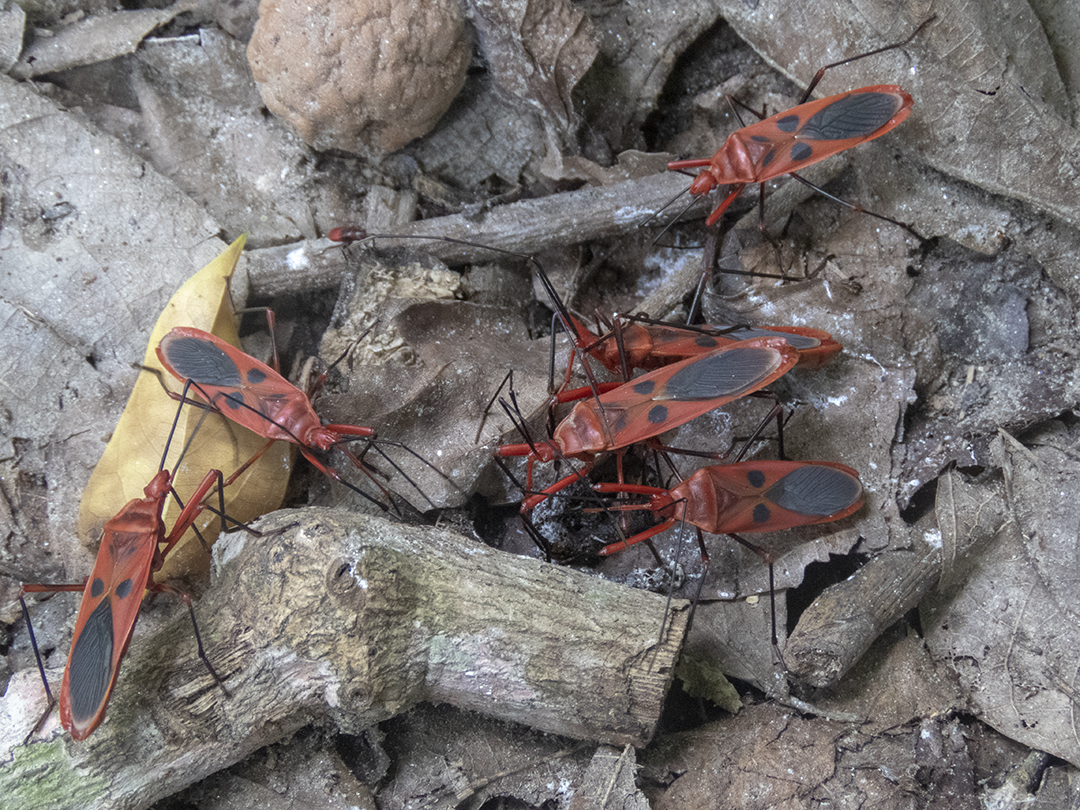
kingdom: Animalia
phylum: Arthropoda
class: Insecta
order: Hemiptera
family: Largidae
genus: Macrocheraia
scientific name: Macrocheraia grandis
